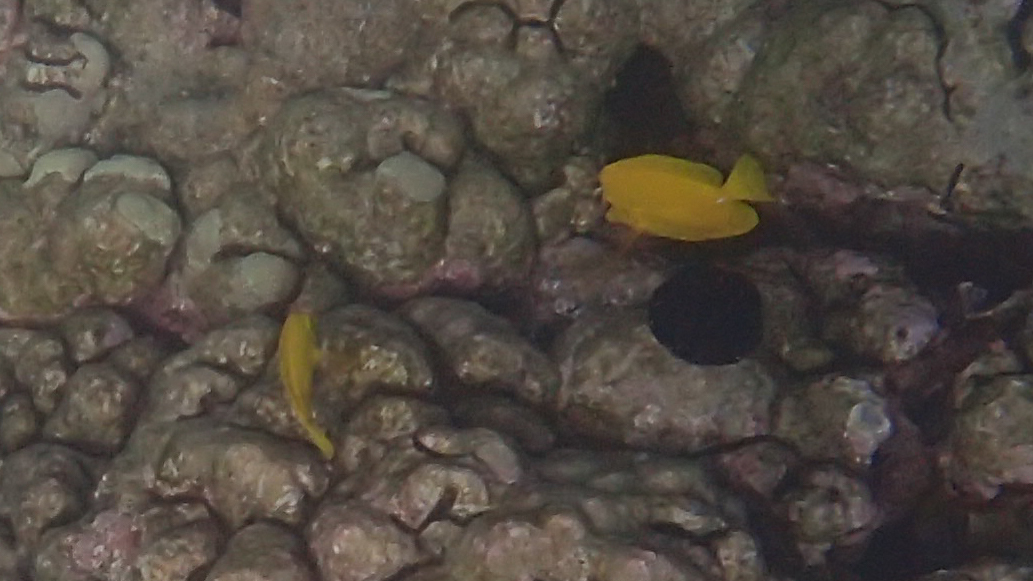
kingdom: Animalia
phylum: Chordata
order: Perciformes
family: Acanthuridae
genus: Zebrasoma
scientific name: Zebrasoma flavescens
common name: Yellow tang
